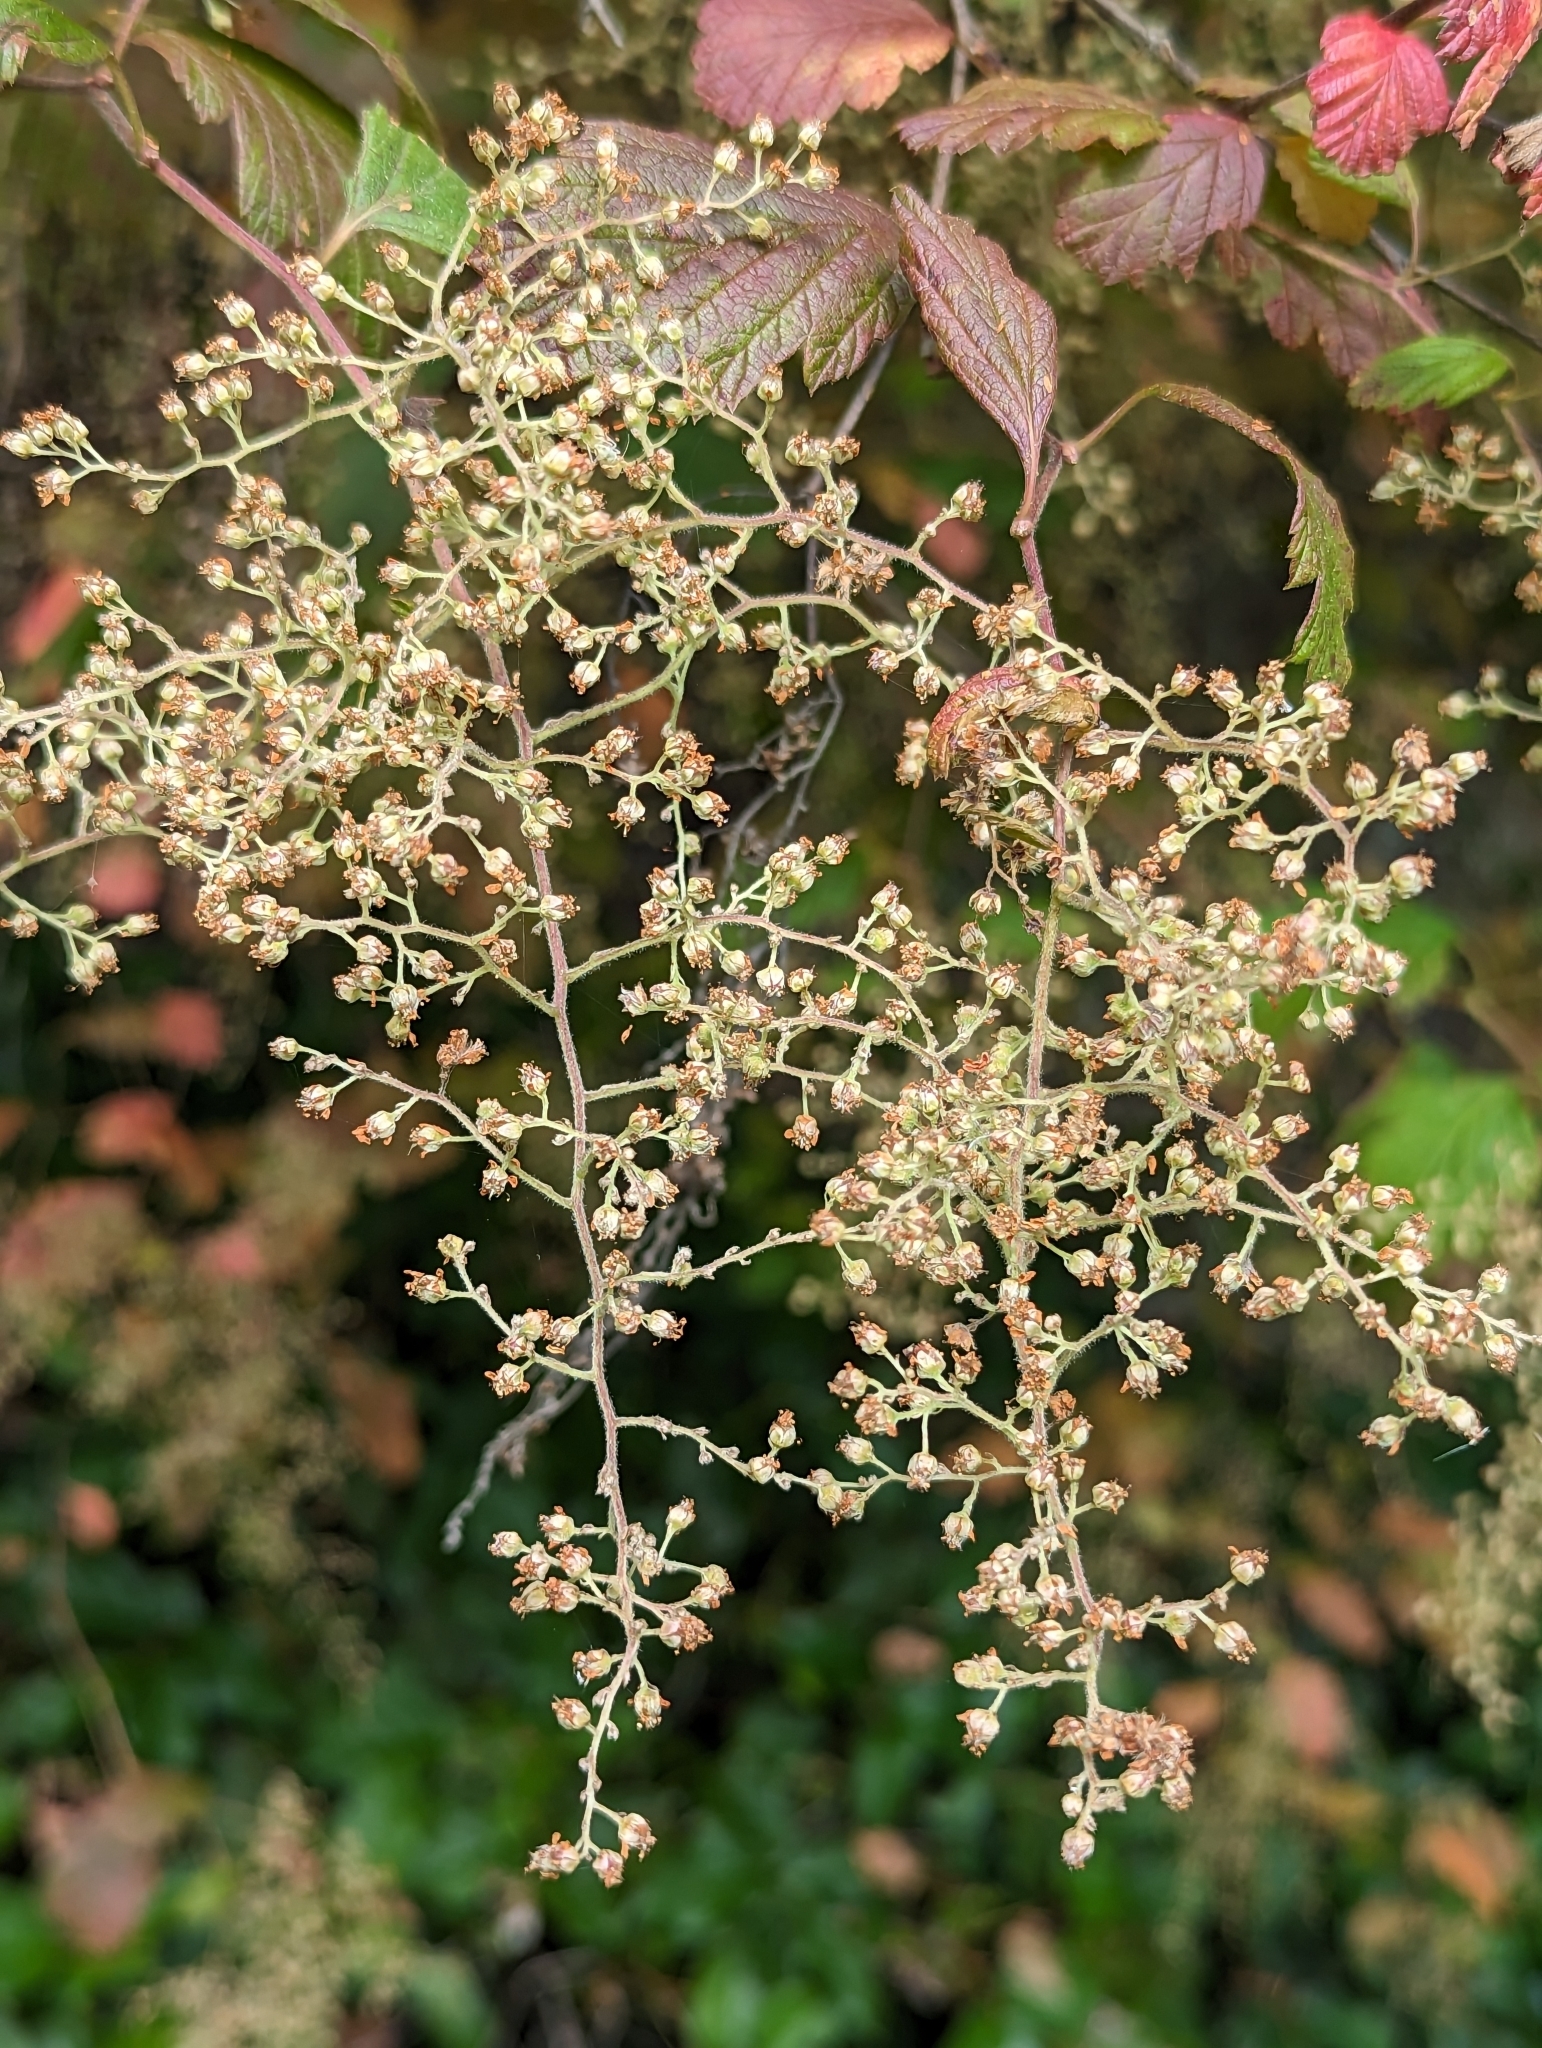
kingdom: Plantae
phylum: Tracheophyta
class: Magnoliopsida
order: Rosales
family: Rosaceae
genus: Holodiscus
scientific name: Holodiscus discolor
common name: Oceanspray
